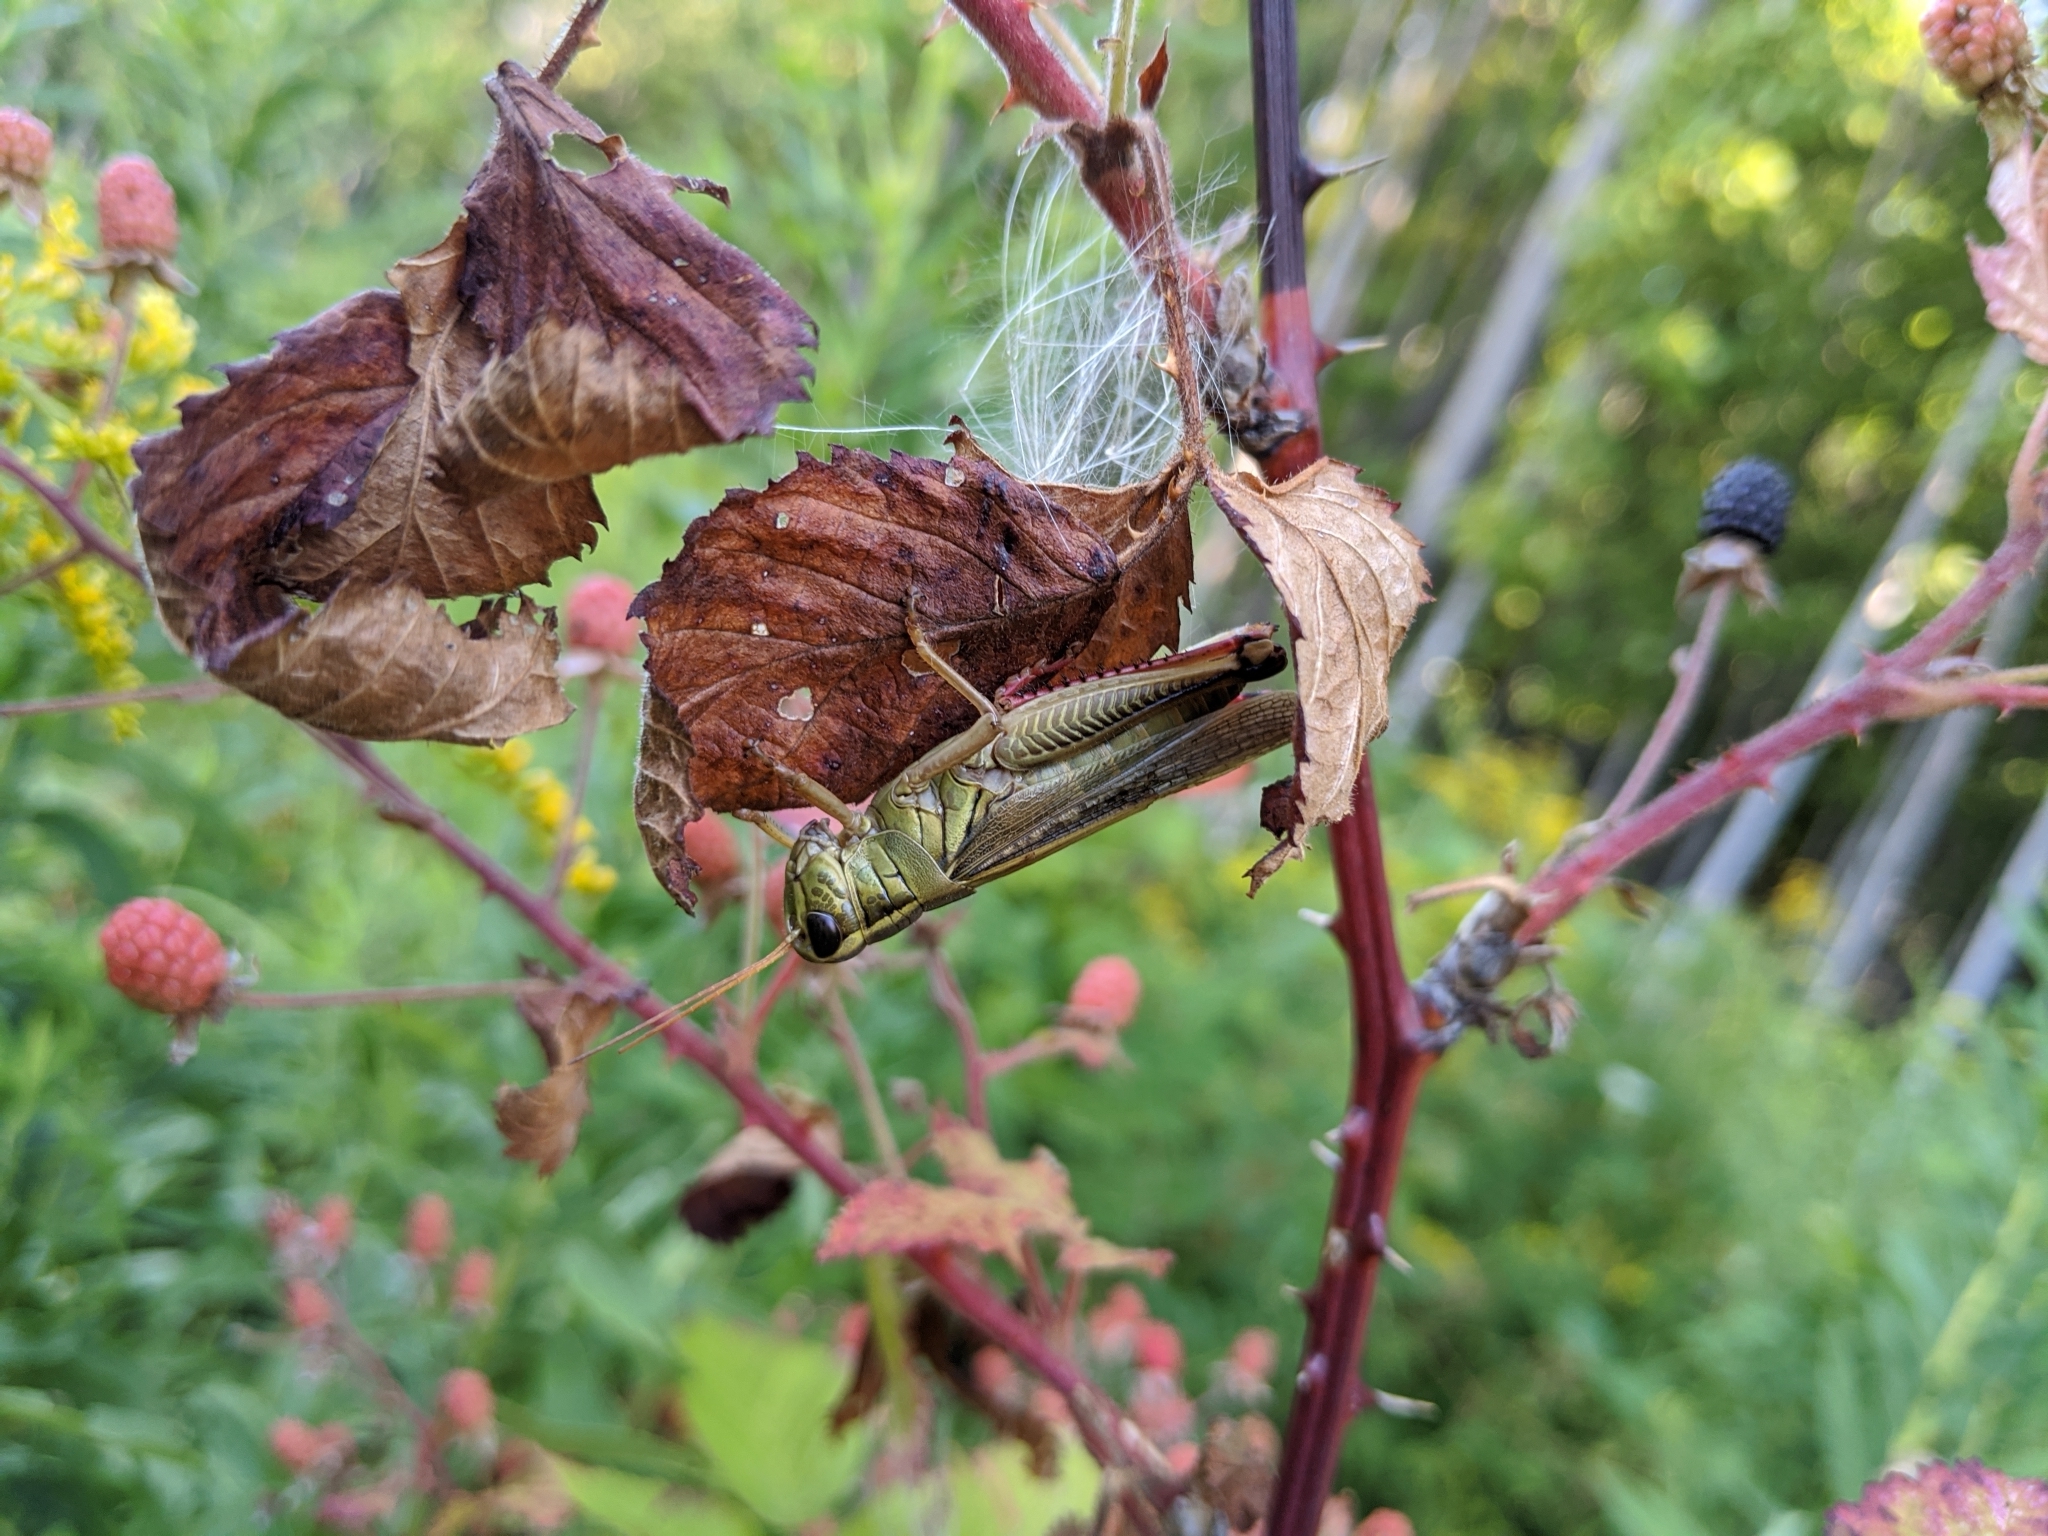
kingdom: Animalia
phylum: Arthropoda
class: Insecta
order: Orthoptera
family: Acrididae
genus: Melanoplus
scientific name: Melanoplus bivittatus
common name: Two-striped grasshopper
